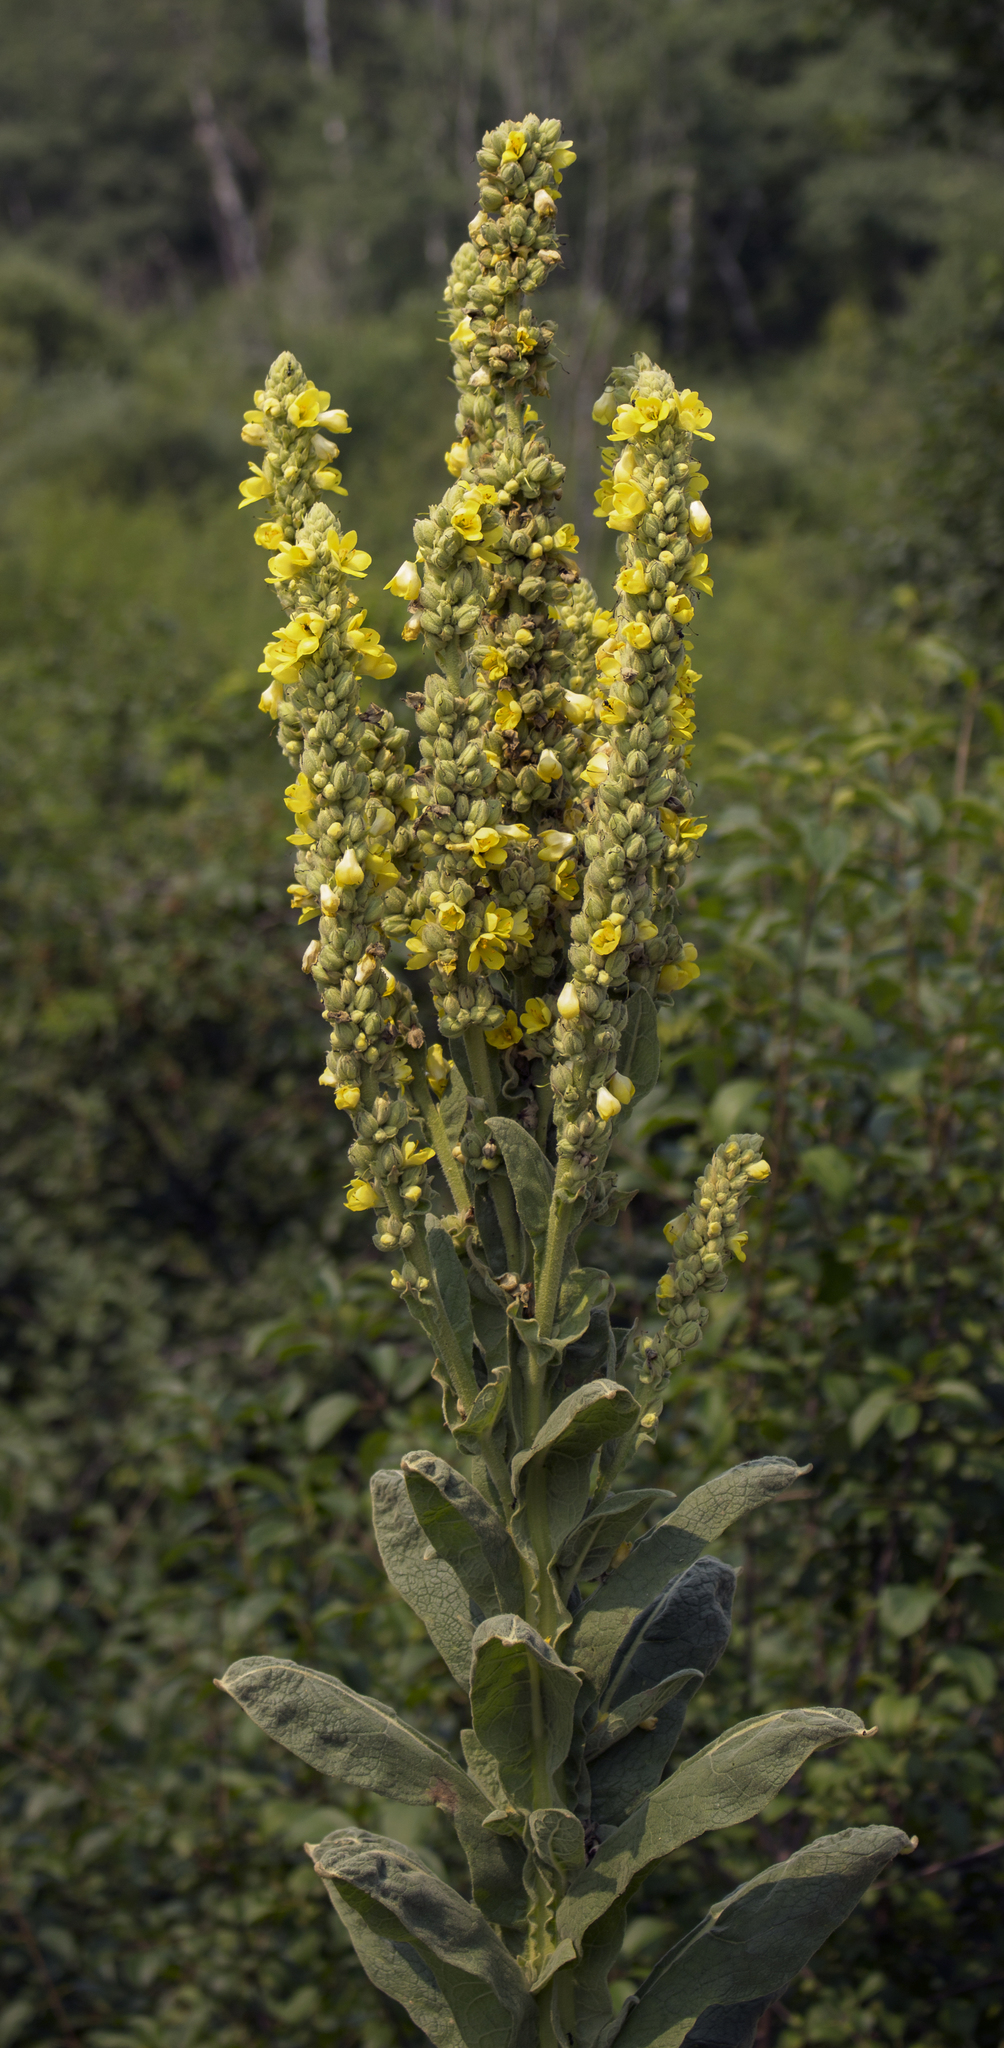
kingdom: Plantae
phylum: Tracheophyta
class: Magnoliopsida
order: Lamiales
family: Scrophulariaceae
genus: Verbascum
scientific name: Verbascum thapsus
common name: Common mullein
